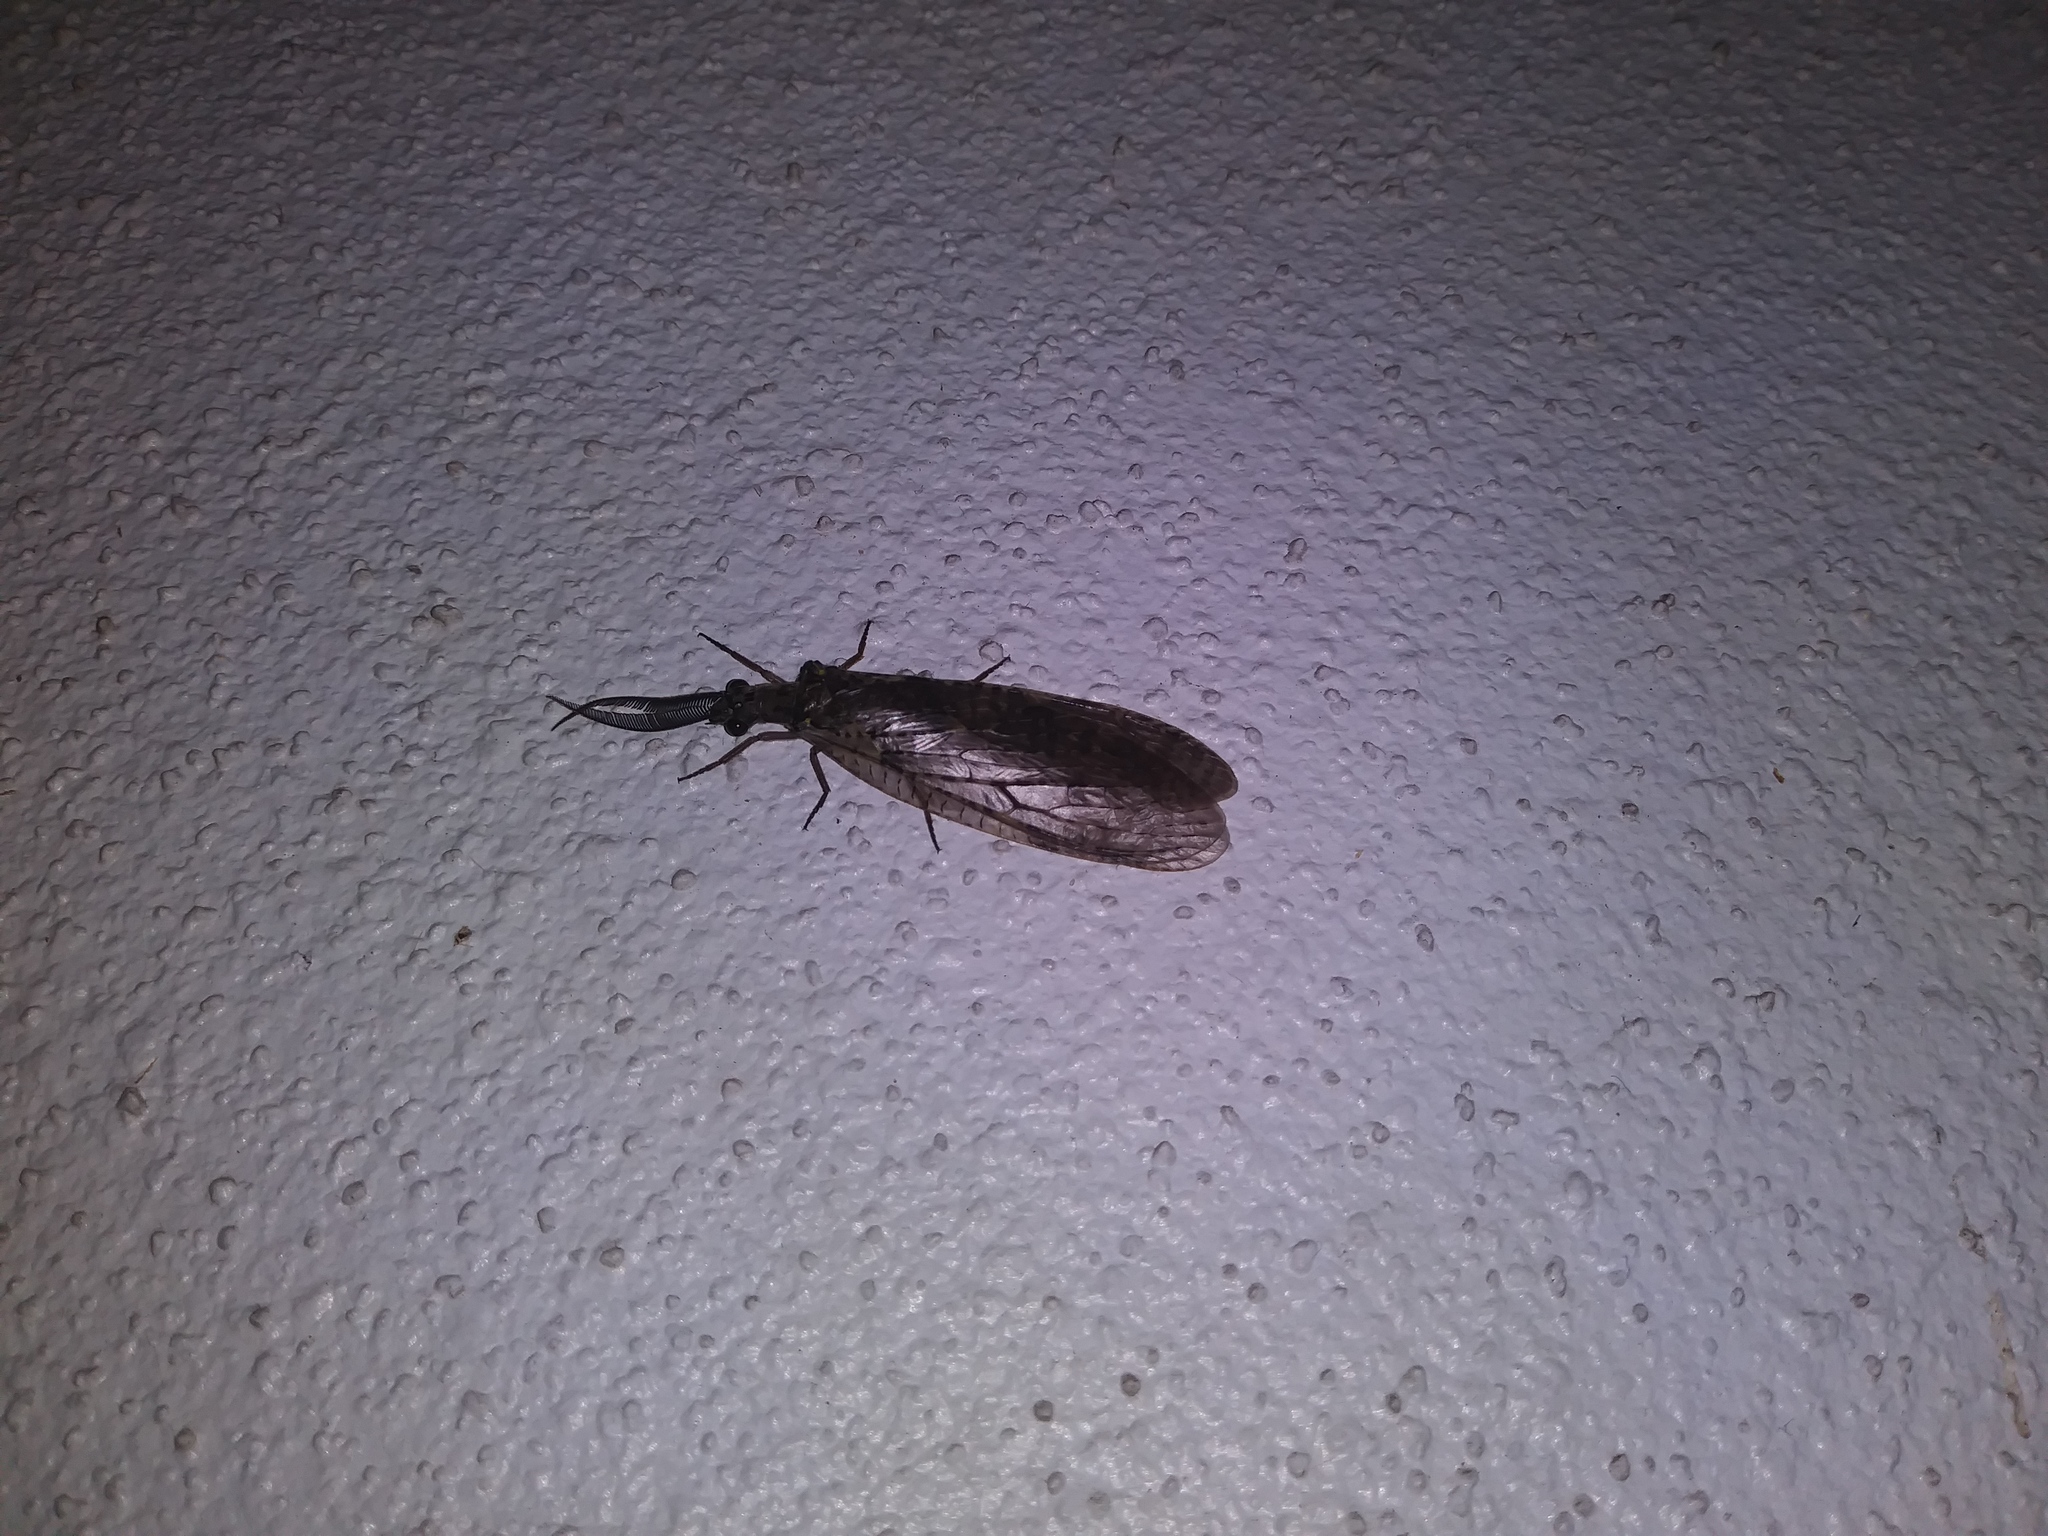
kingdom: Animalia
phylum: Arthropoda
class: Insecta
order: Megaloptera
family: Corydalidae
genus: Chauliodes
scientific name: Chauliodes rastricornis
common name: Spring fishfly
